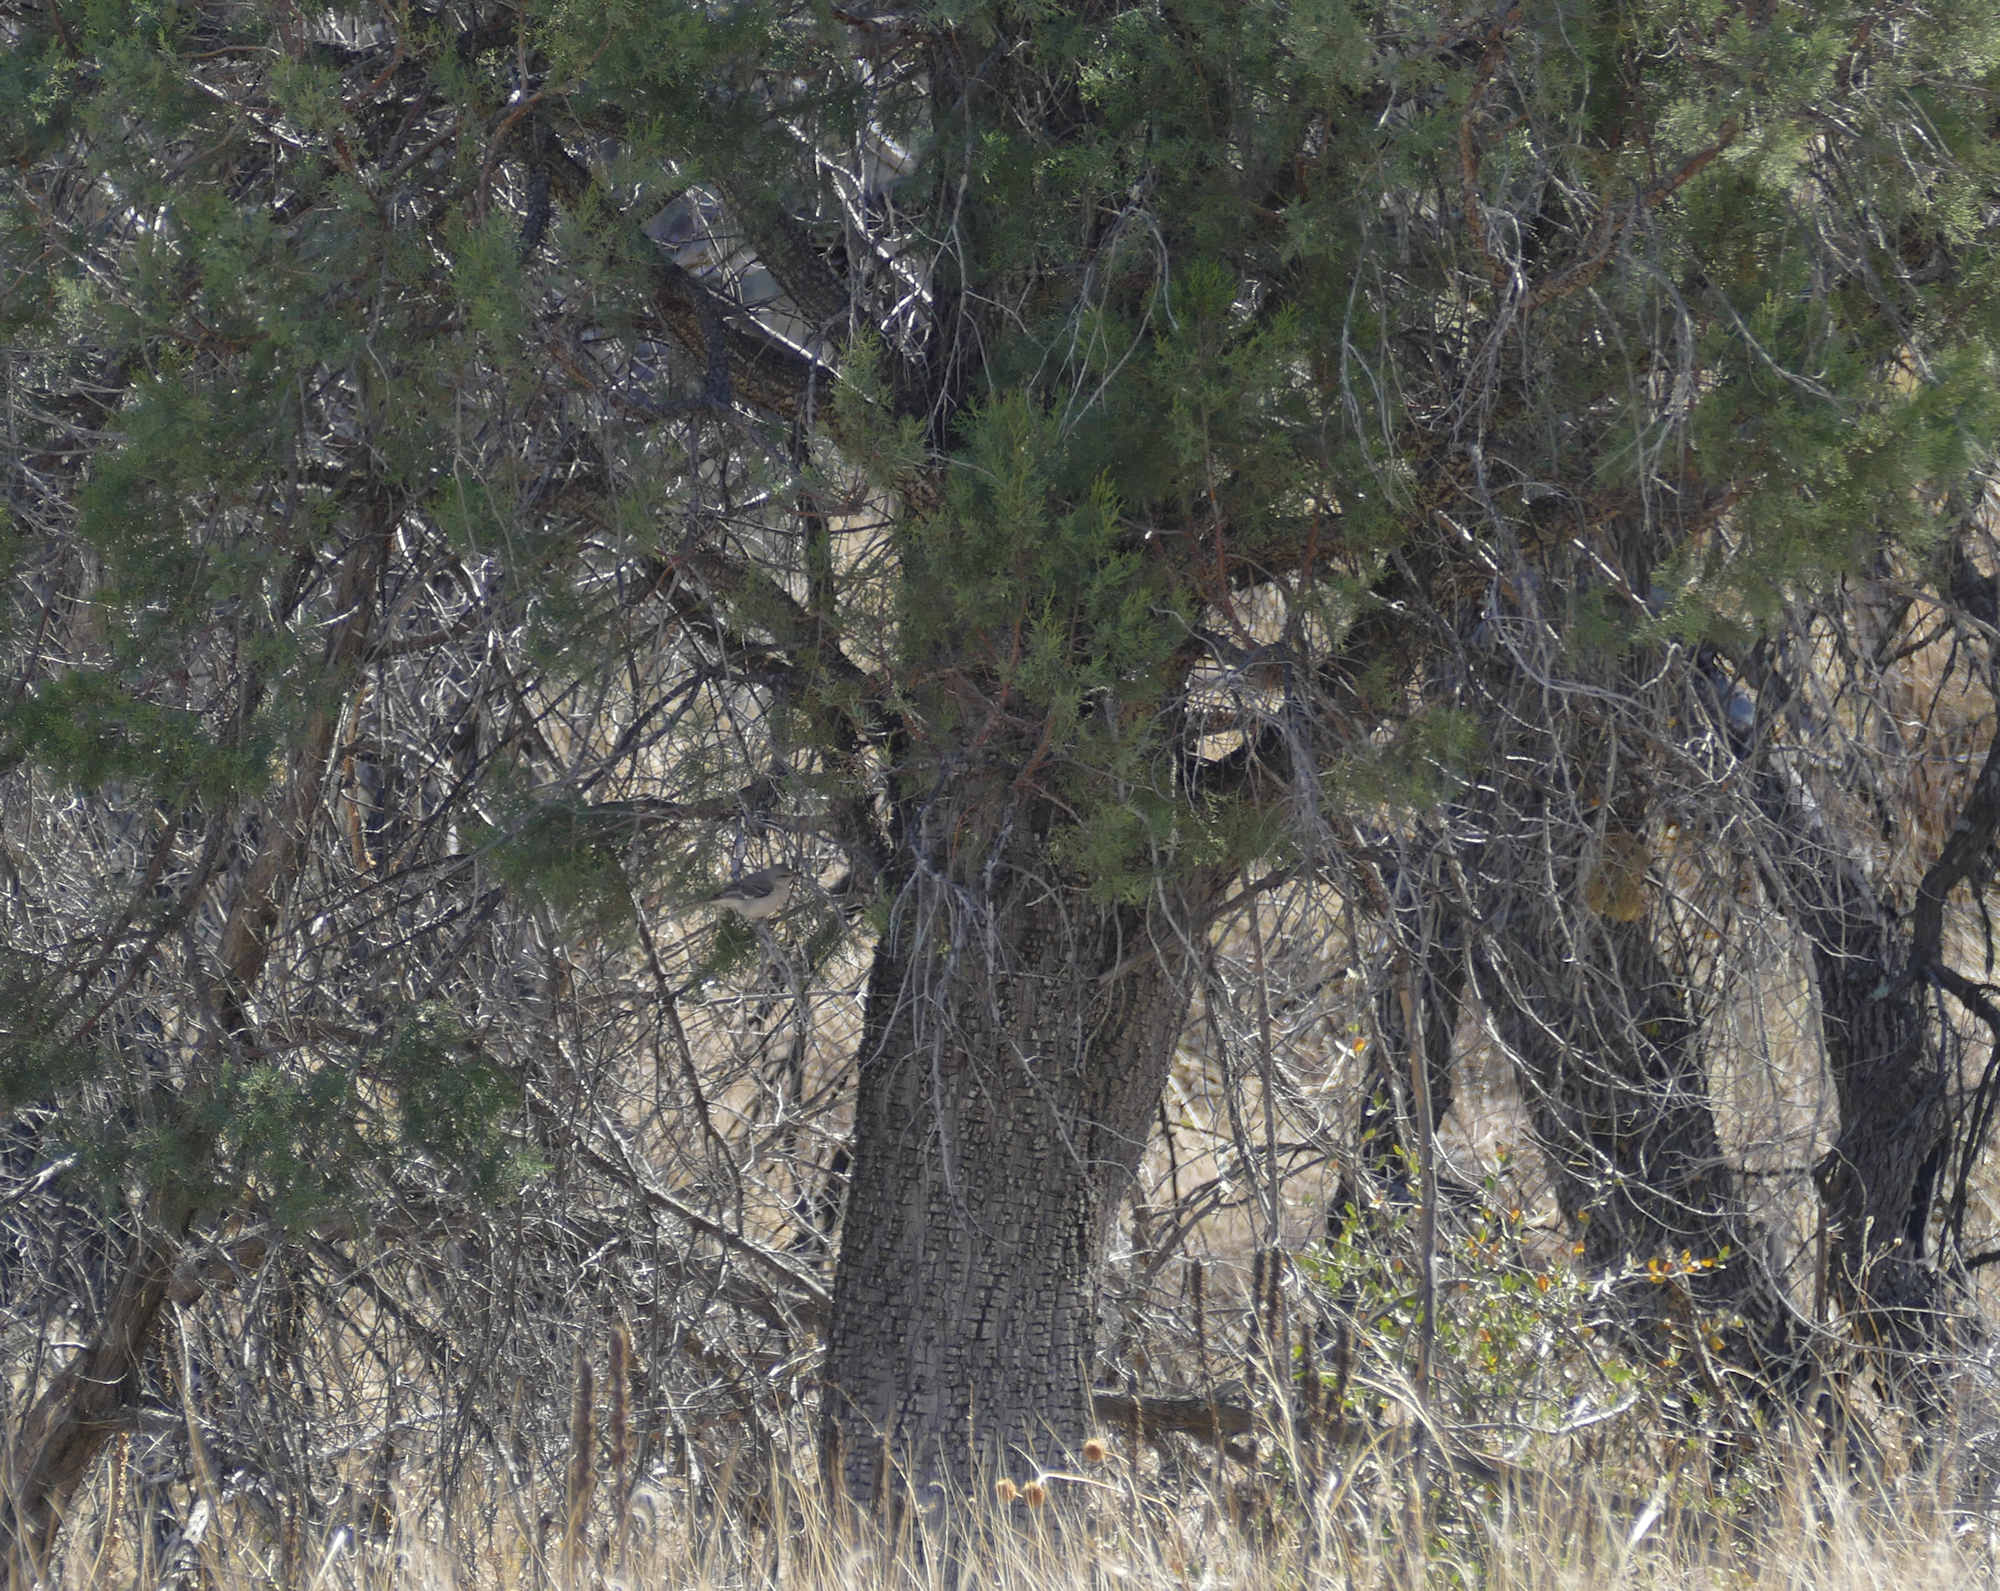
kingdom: Plantae
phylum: Tracheophyta
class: Pinopsida
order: Pinales
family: Cupressaceae
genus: Juniperus
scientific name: Juniperus deppeana
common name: Alligator juniper
